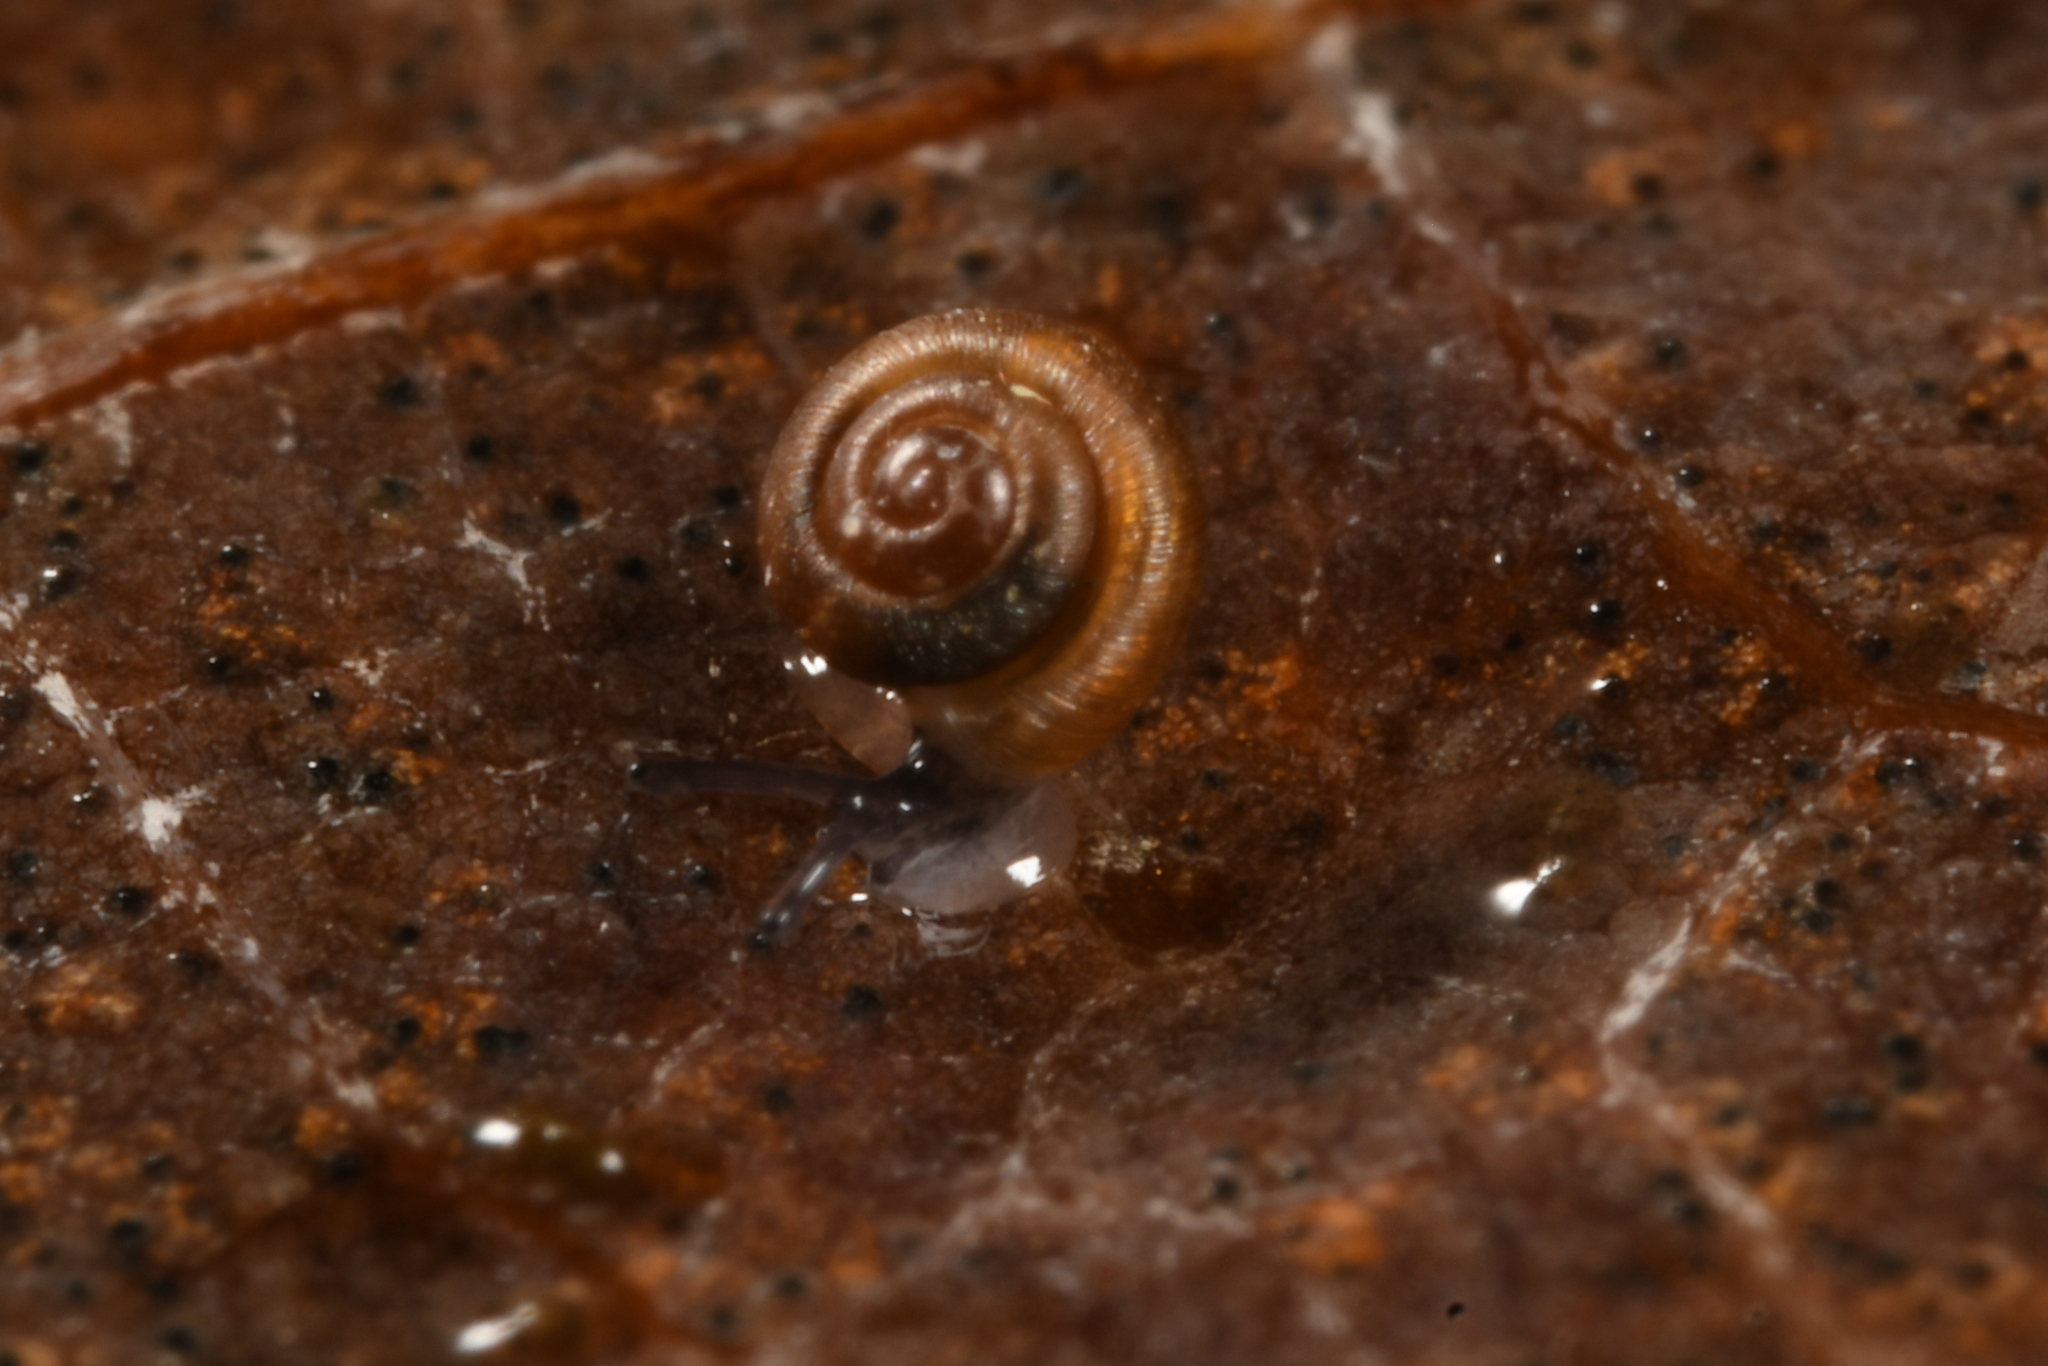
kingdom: Animalia
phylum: Mollusca
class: Gastropoda
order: Stylommatophora
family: Punctidae
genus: Punctum
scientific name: Punctum pygmaeum
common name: Dwarf snail
